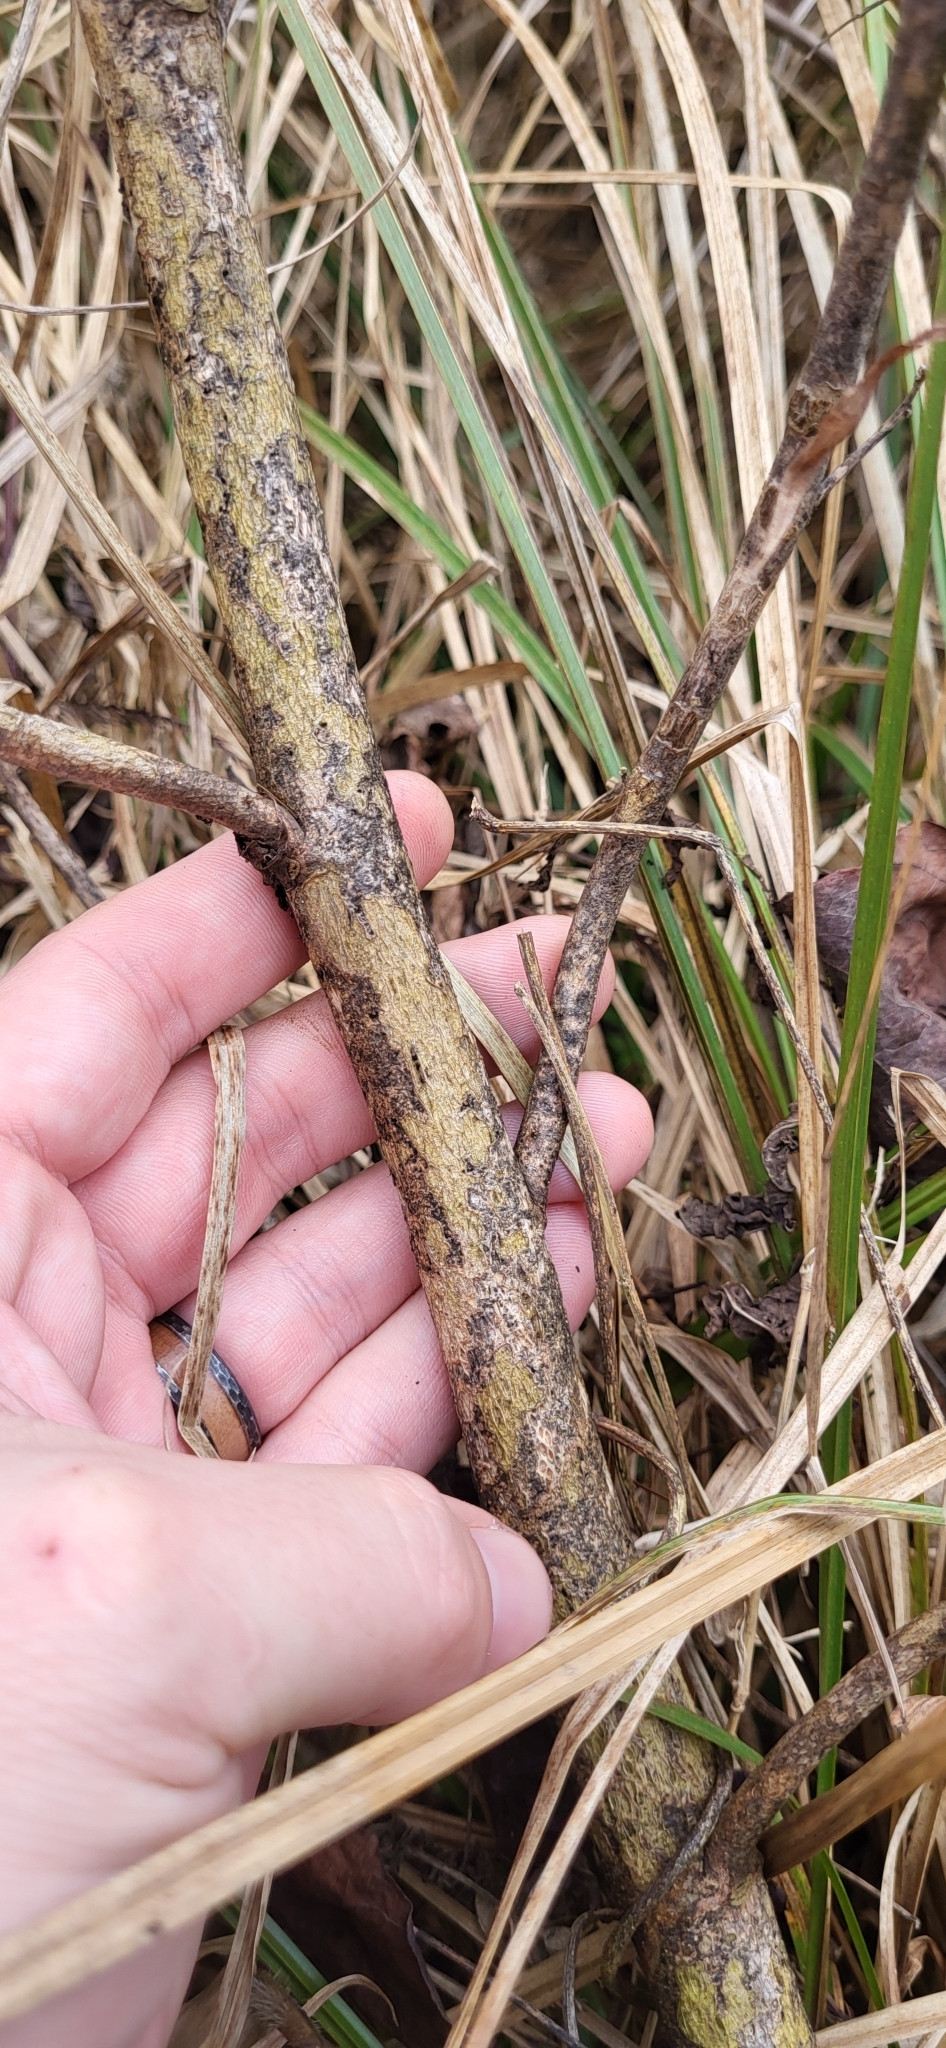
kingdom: Plantae
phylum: Tracheophyta
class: Magnoliopsida
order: Malvales
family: Malvaceae
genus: Hibiscus
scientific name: Hibiscus laevis
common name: Scarlet rose-mallow
